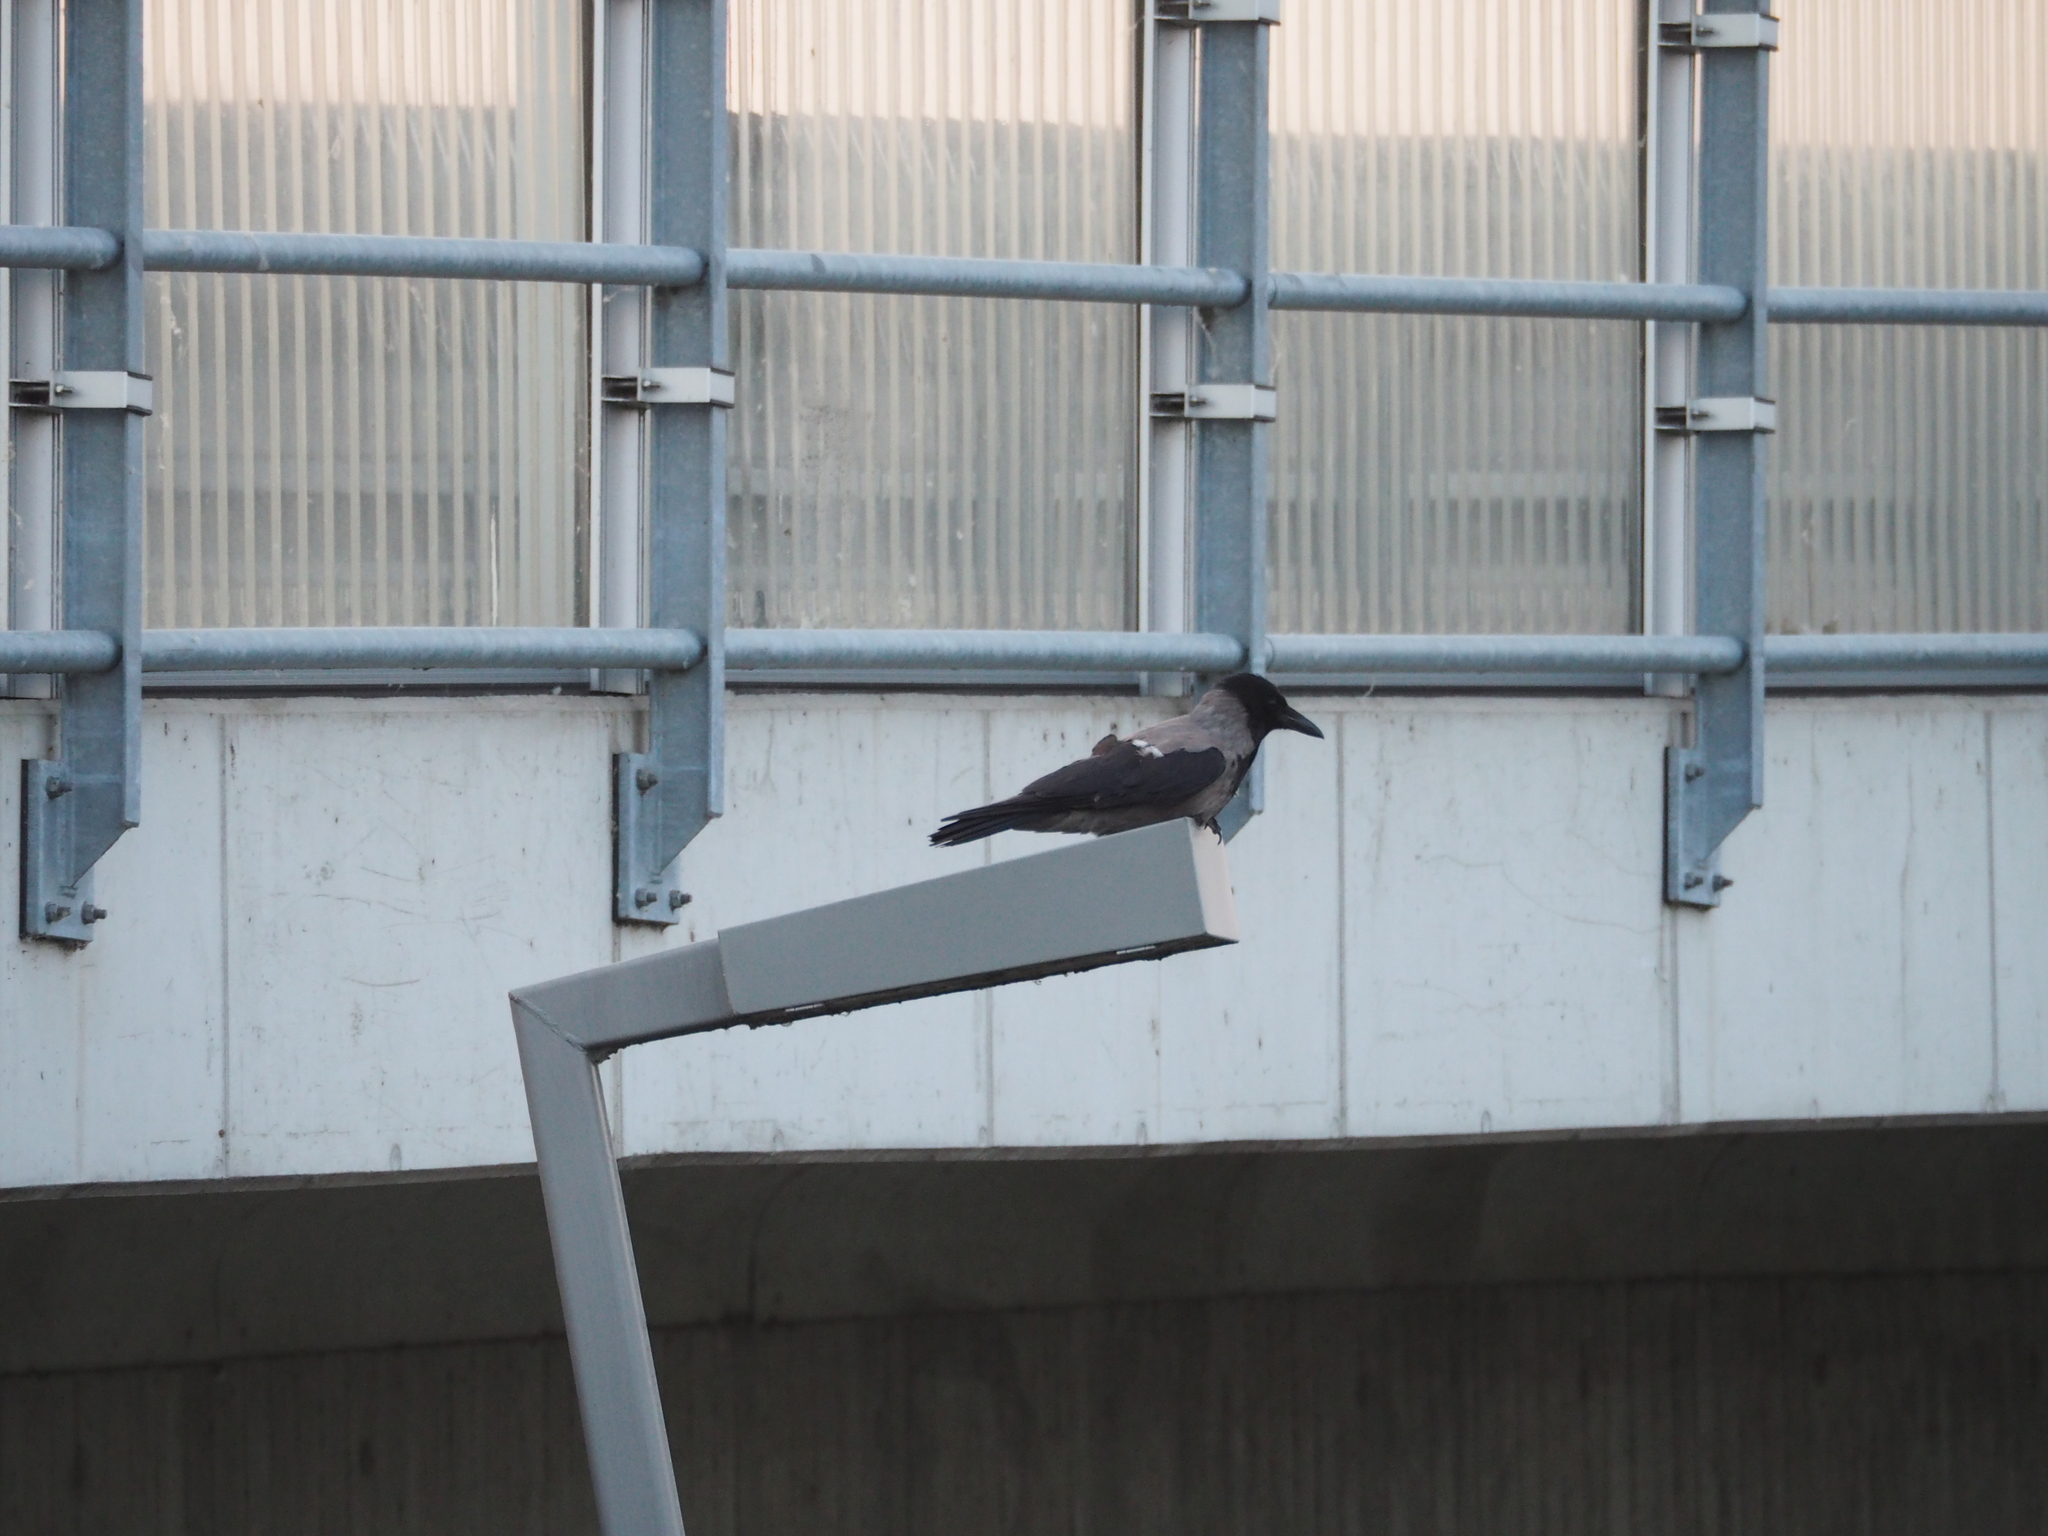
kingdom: Animalia
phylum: Chordata
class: Aves
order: Passeriformes
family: Corvidae
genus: Corvus
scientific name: Corvus cornix
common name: Hooded crow
